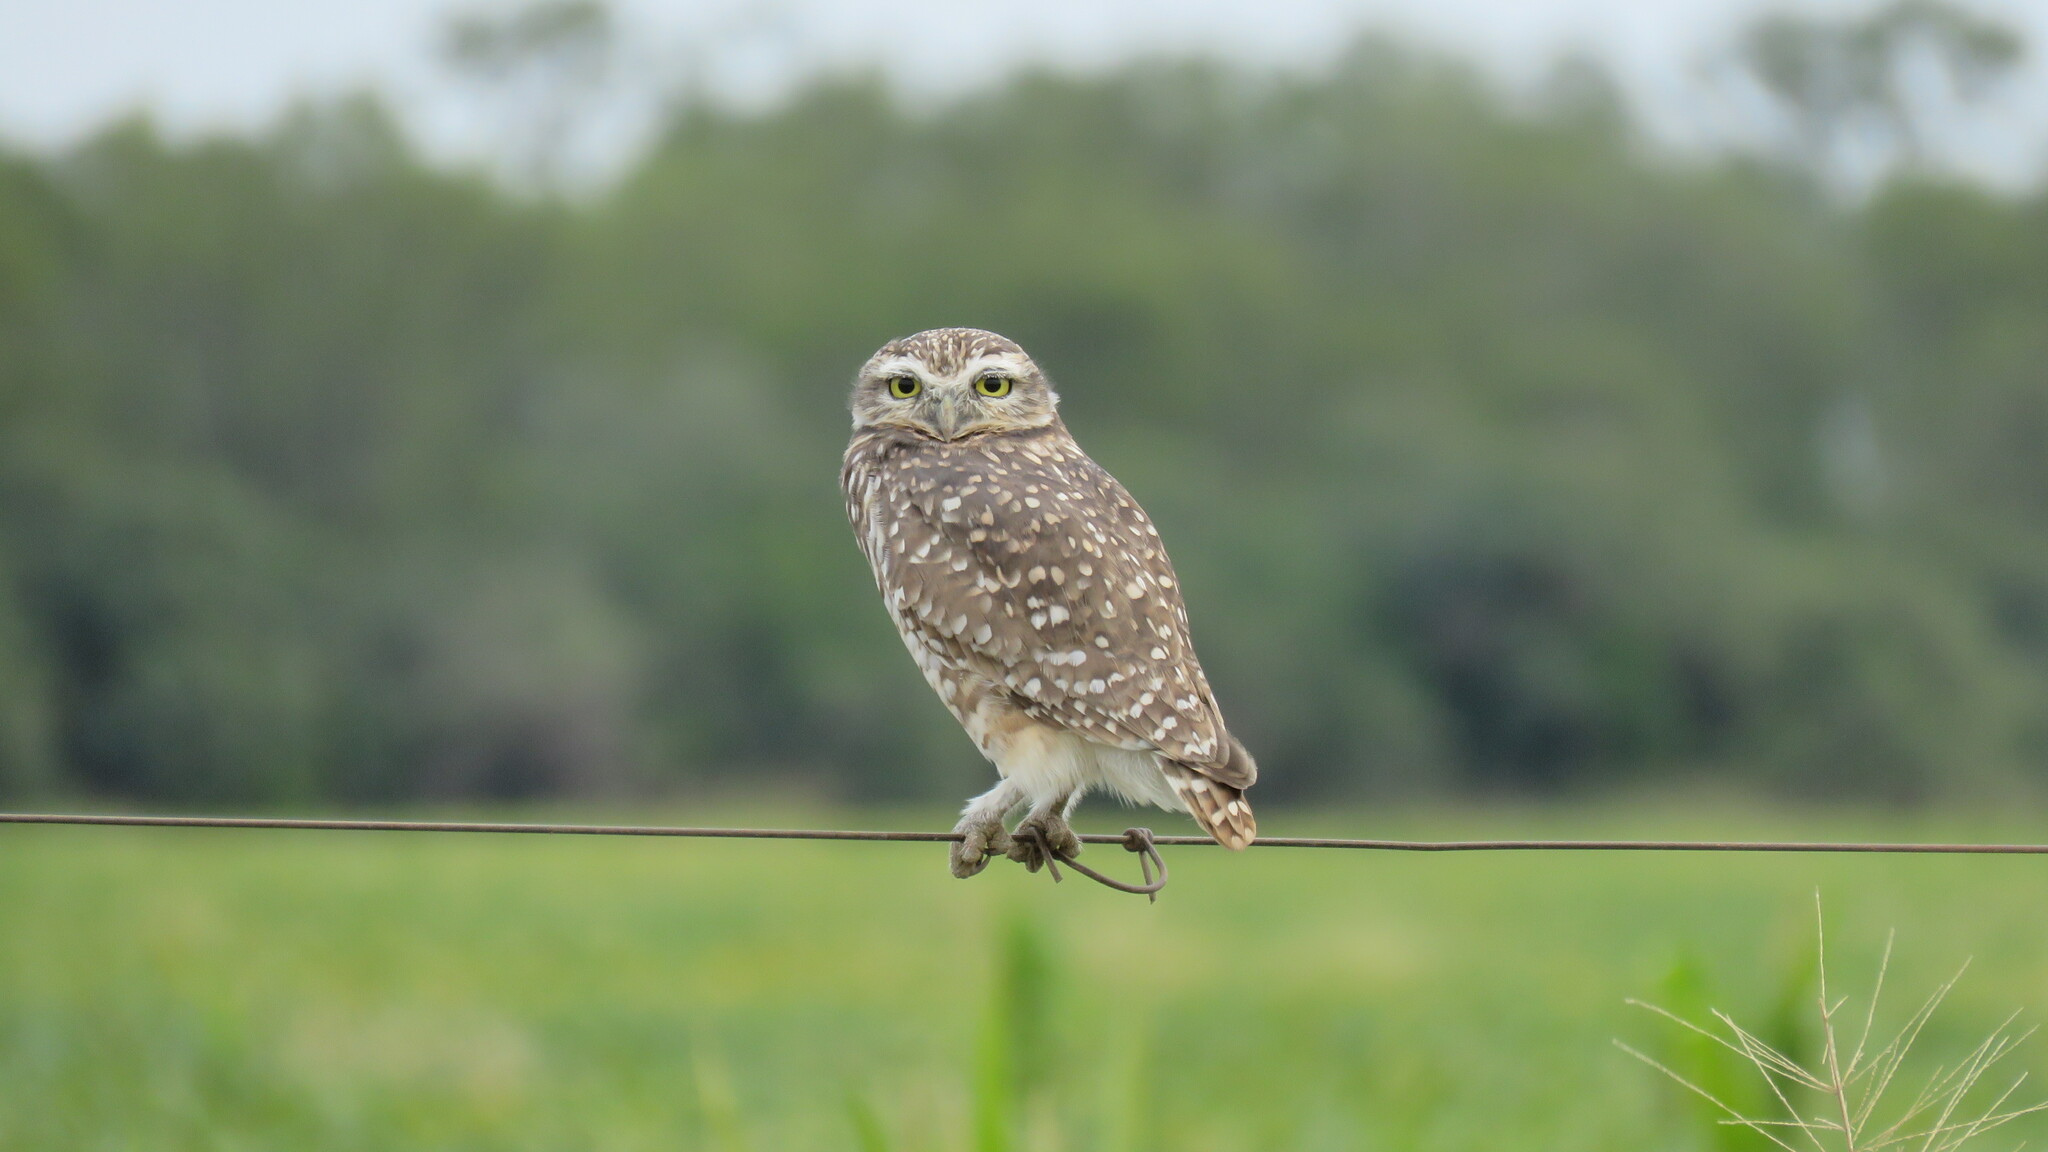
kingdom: Animalia
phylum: Chordata
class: Aves
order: Strigiformes
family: Strigidae
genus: Athene
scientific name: Athene cunicularia
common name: Burrowing owl
